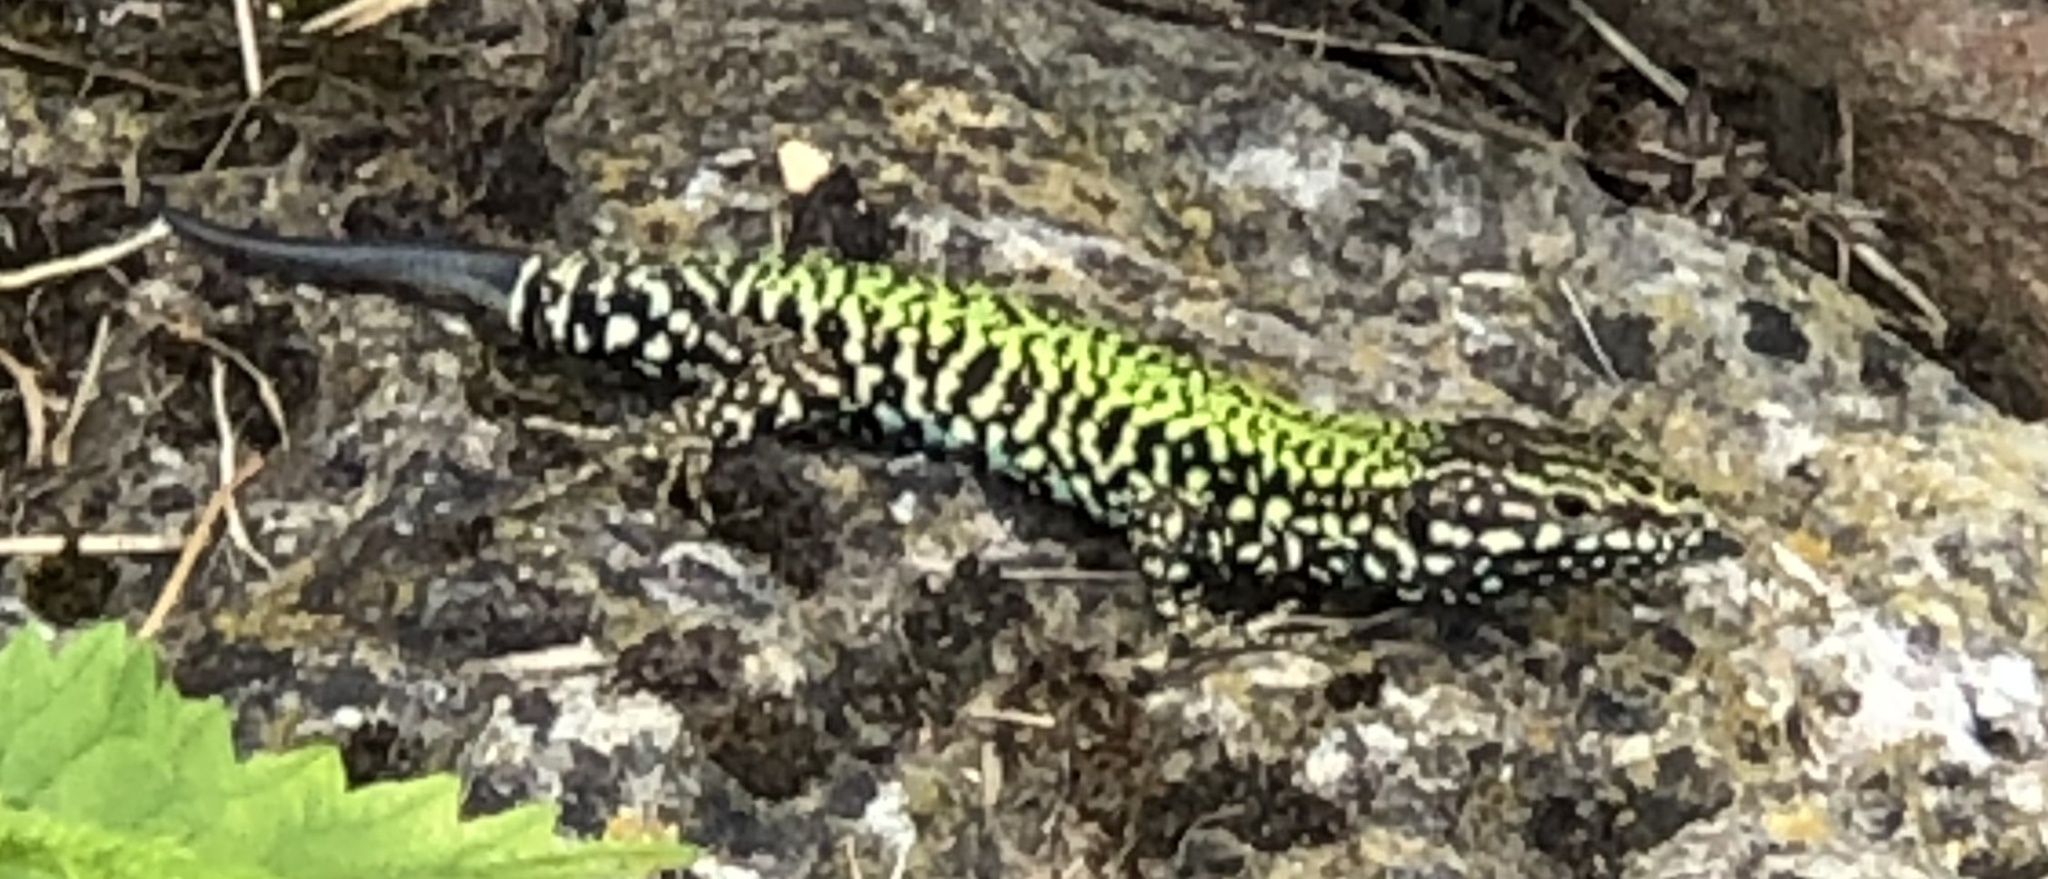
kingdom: Animalia
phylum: Chordata
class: Squamata
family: Lacertidae
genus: Podarcis
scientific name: Podarcis muralis
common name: Common wall lizard
